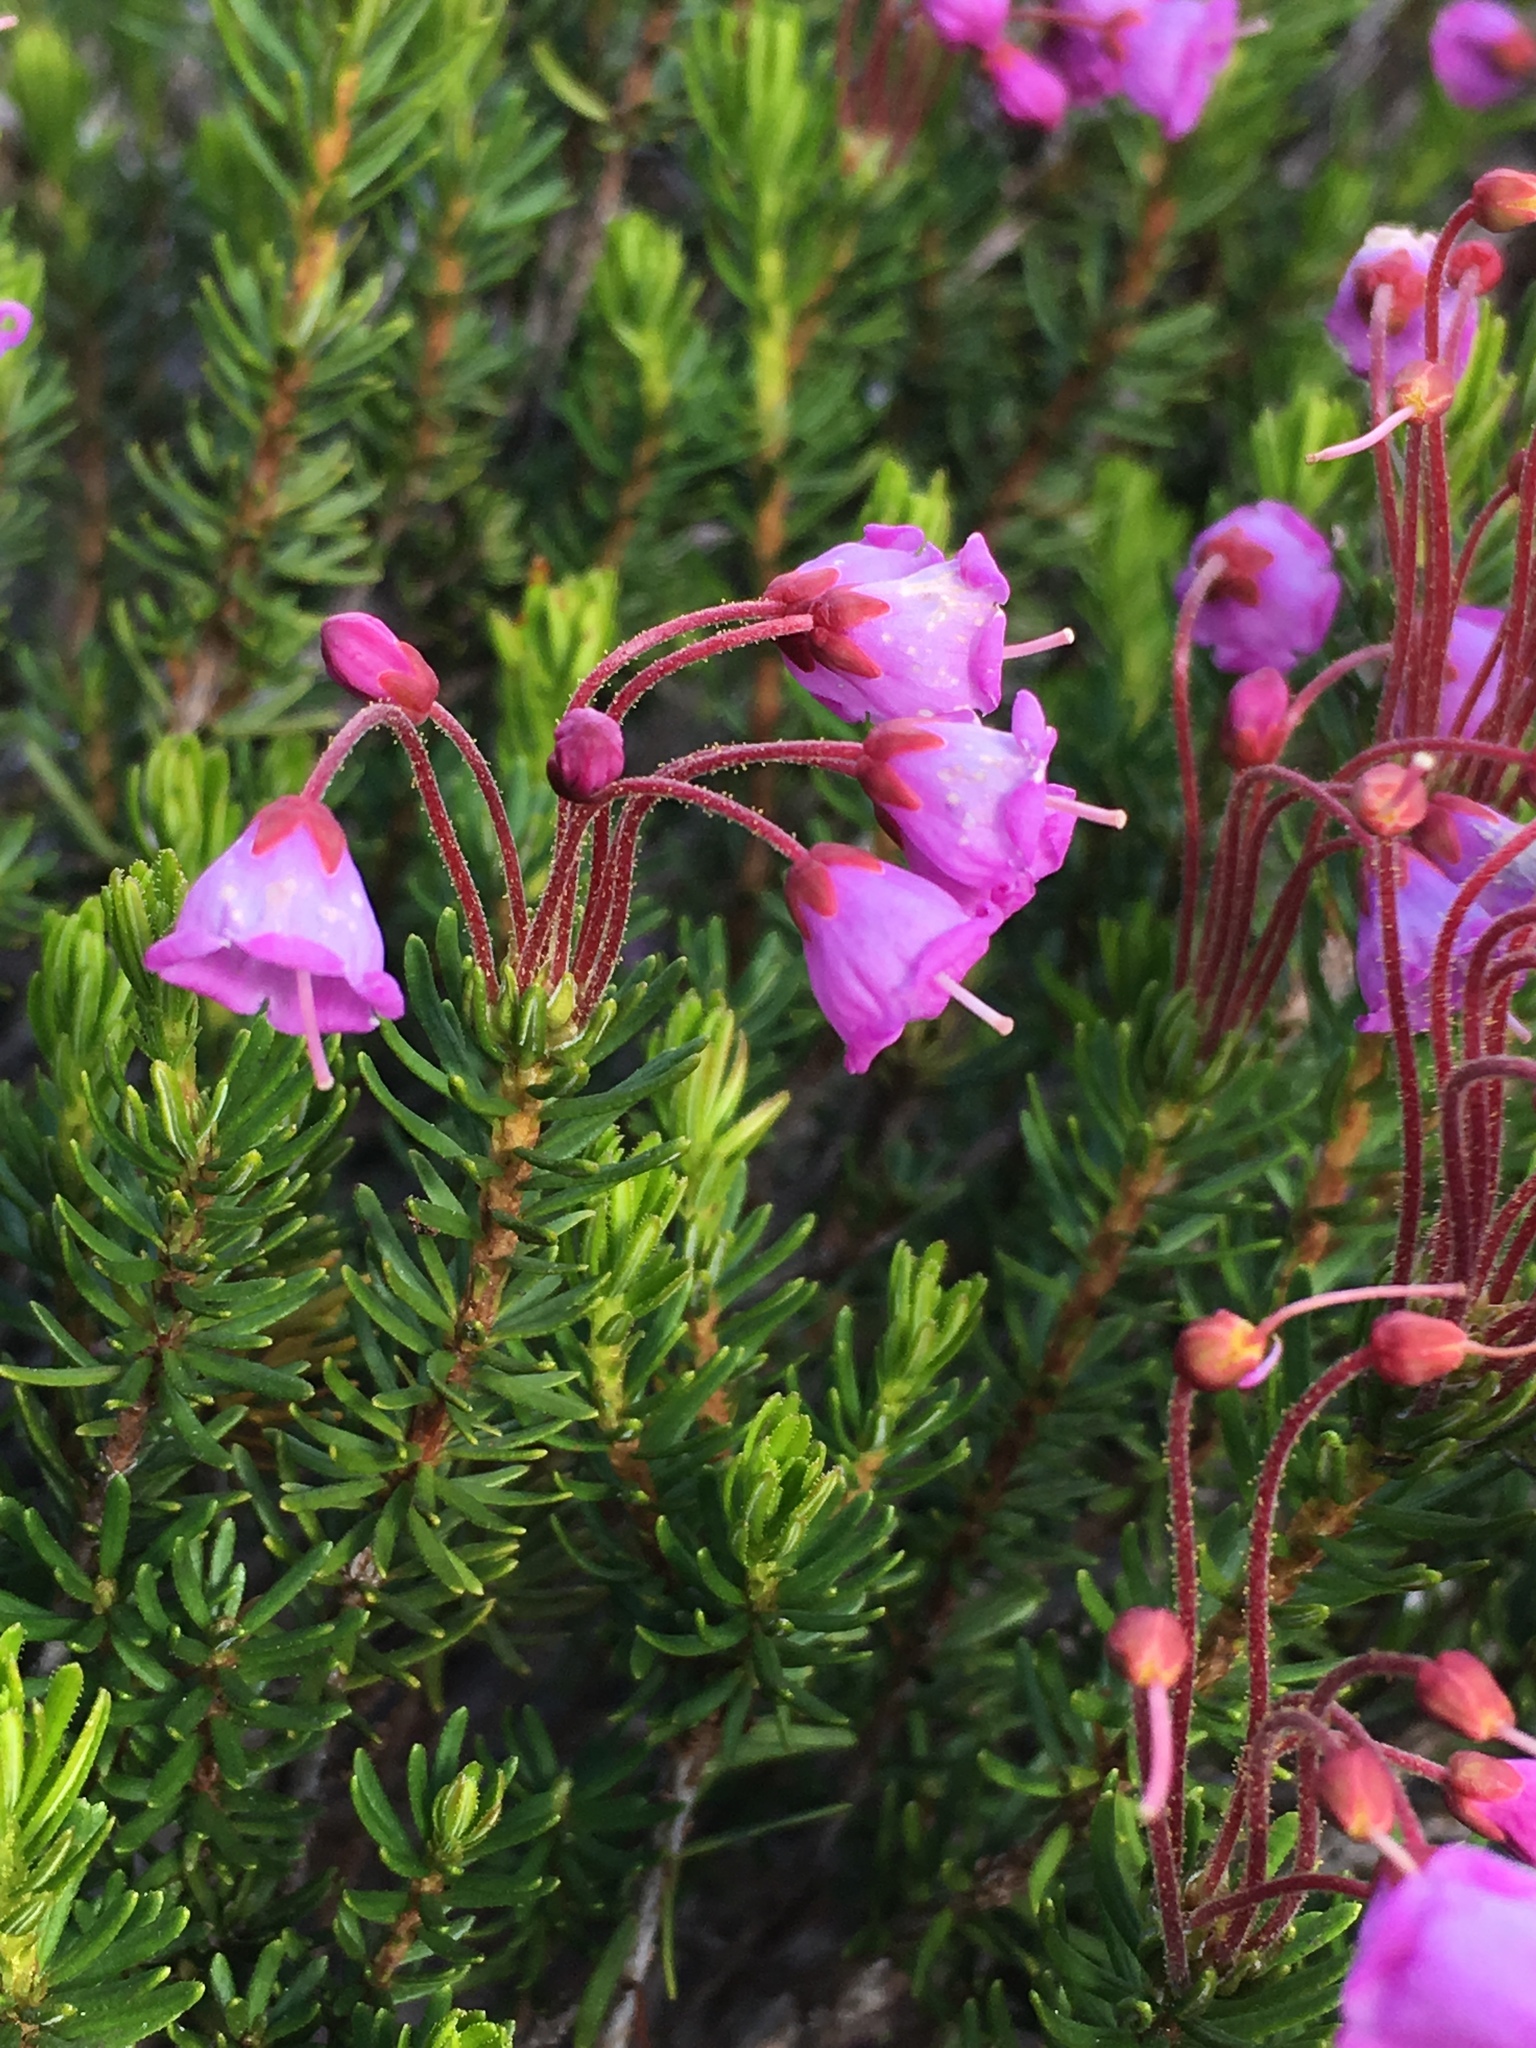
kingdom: Plantae
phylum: Tracheophyta
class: Magnoliopsida
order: Ericales
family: Ericaceae
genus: Phyllodoce
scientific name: Phyllodoce empetriformis
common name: Pink mountain heather
